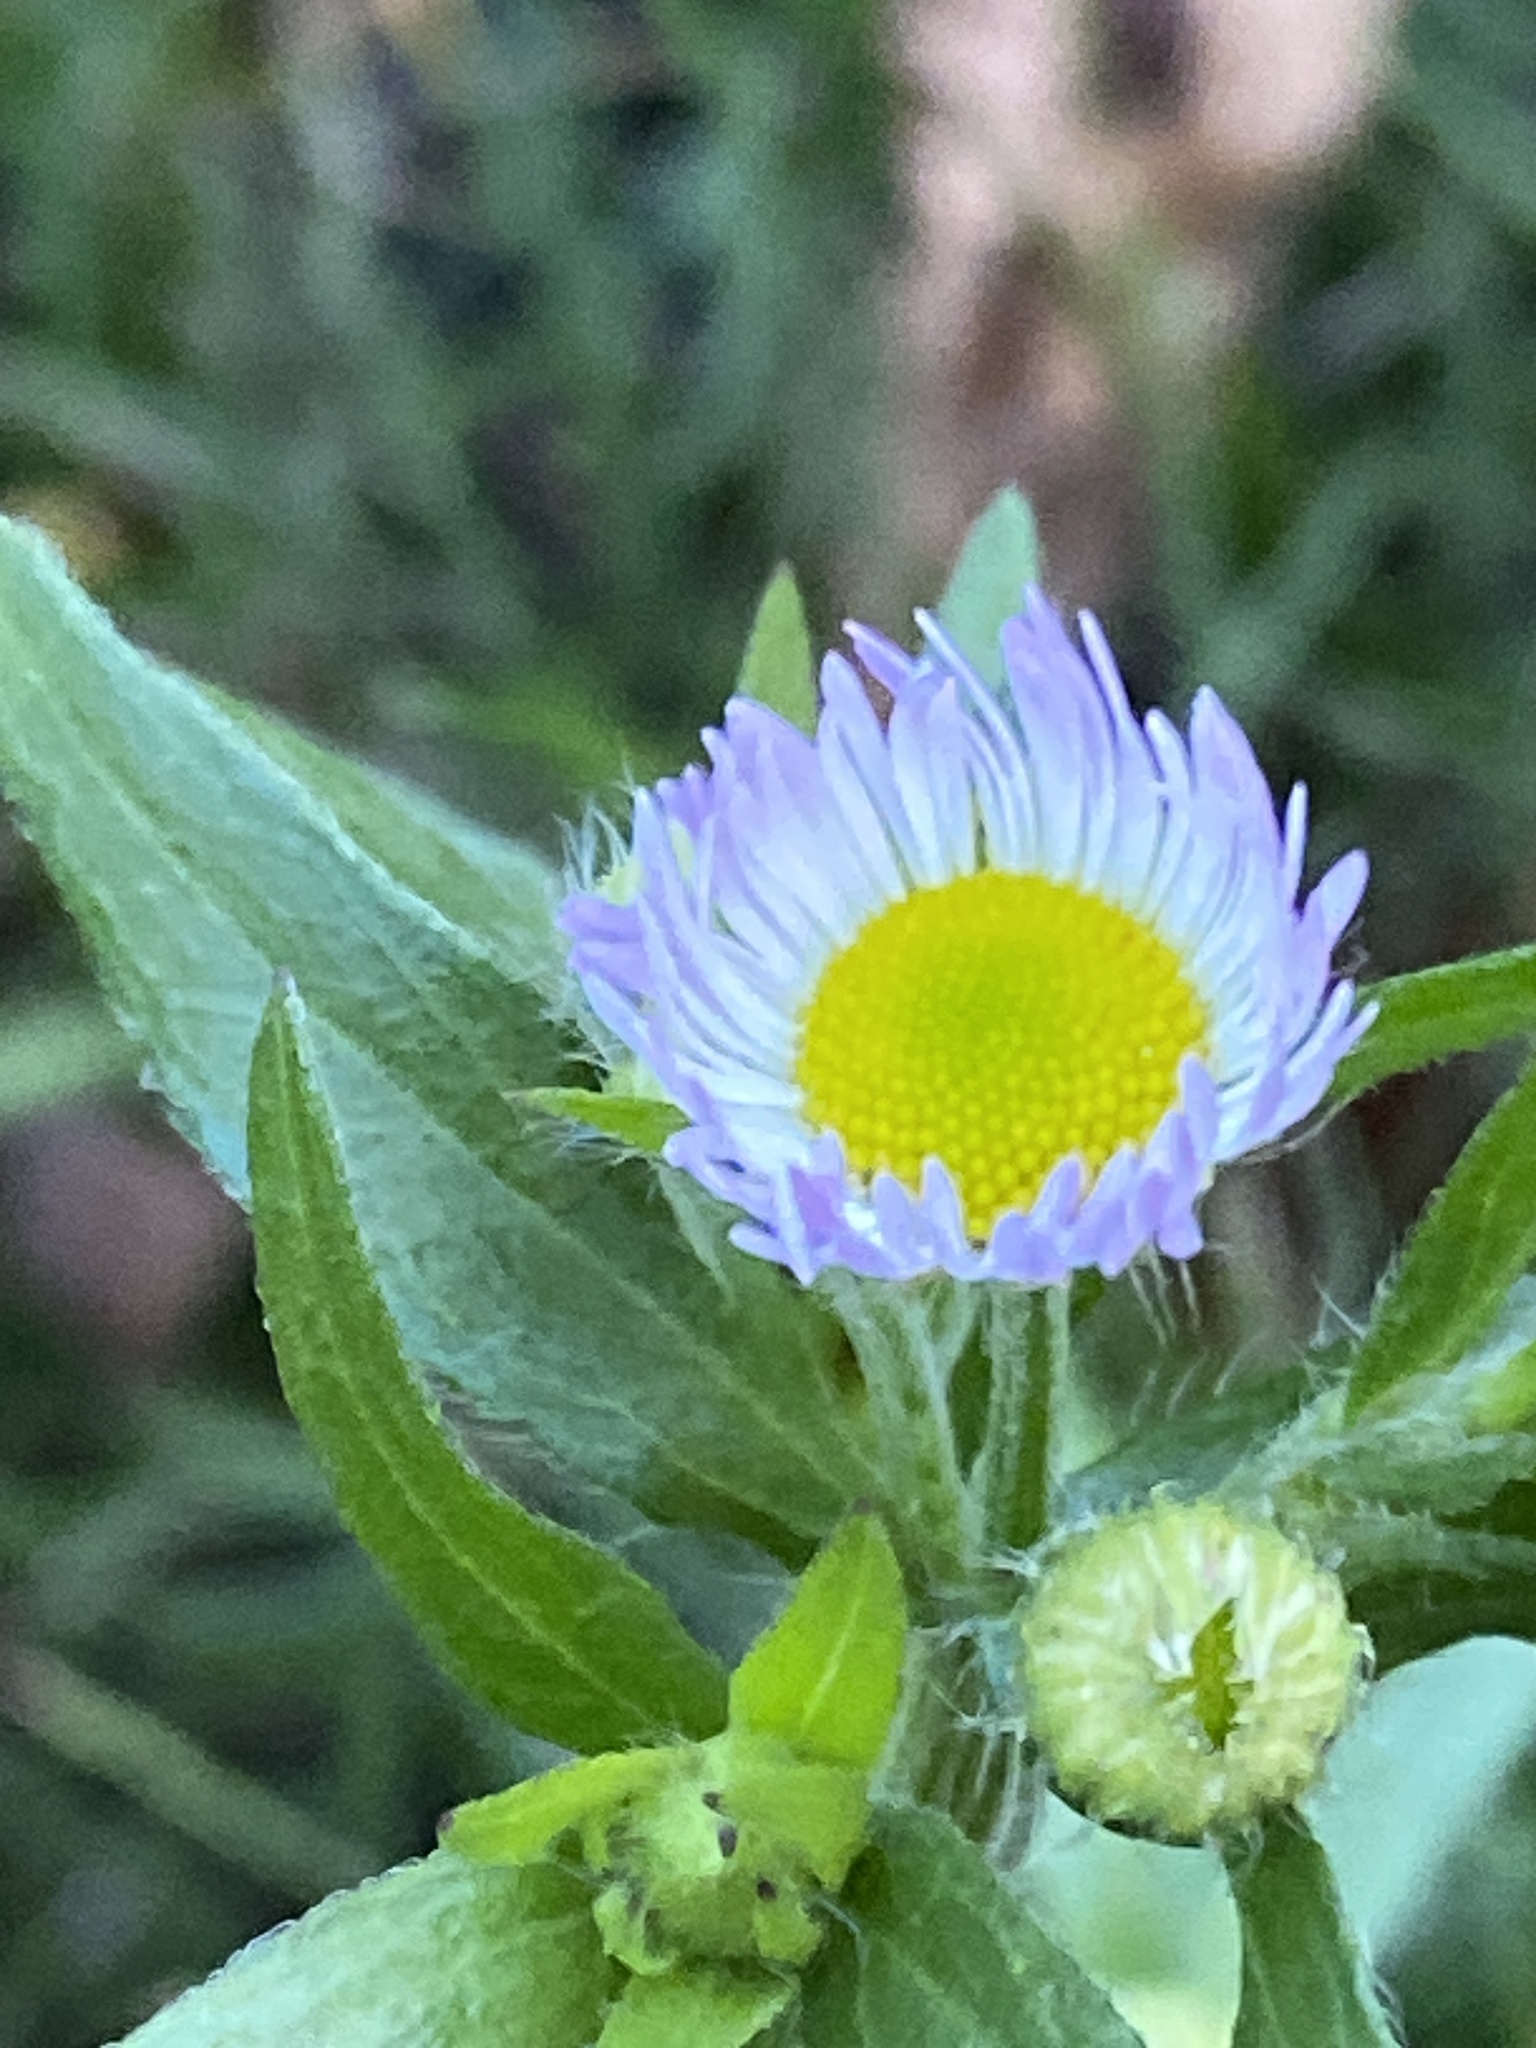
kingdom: Plantae
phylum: Tracheophyta
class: Magnoliopsida
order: Asterales
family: Asteraceae
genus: Erigeron
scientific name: Erigeron annuus
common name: Tall fleabane
